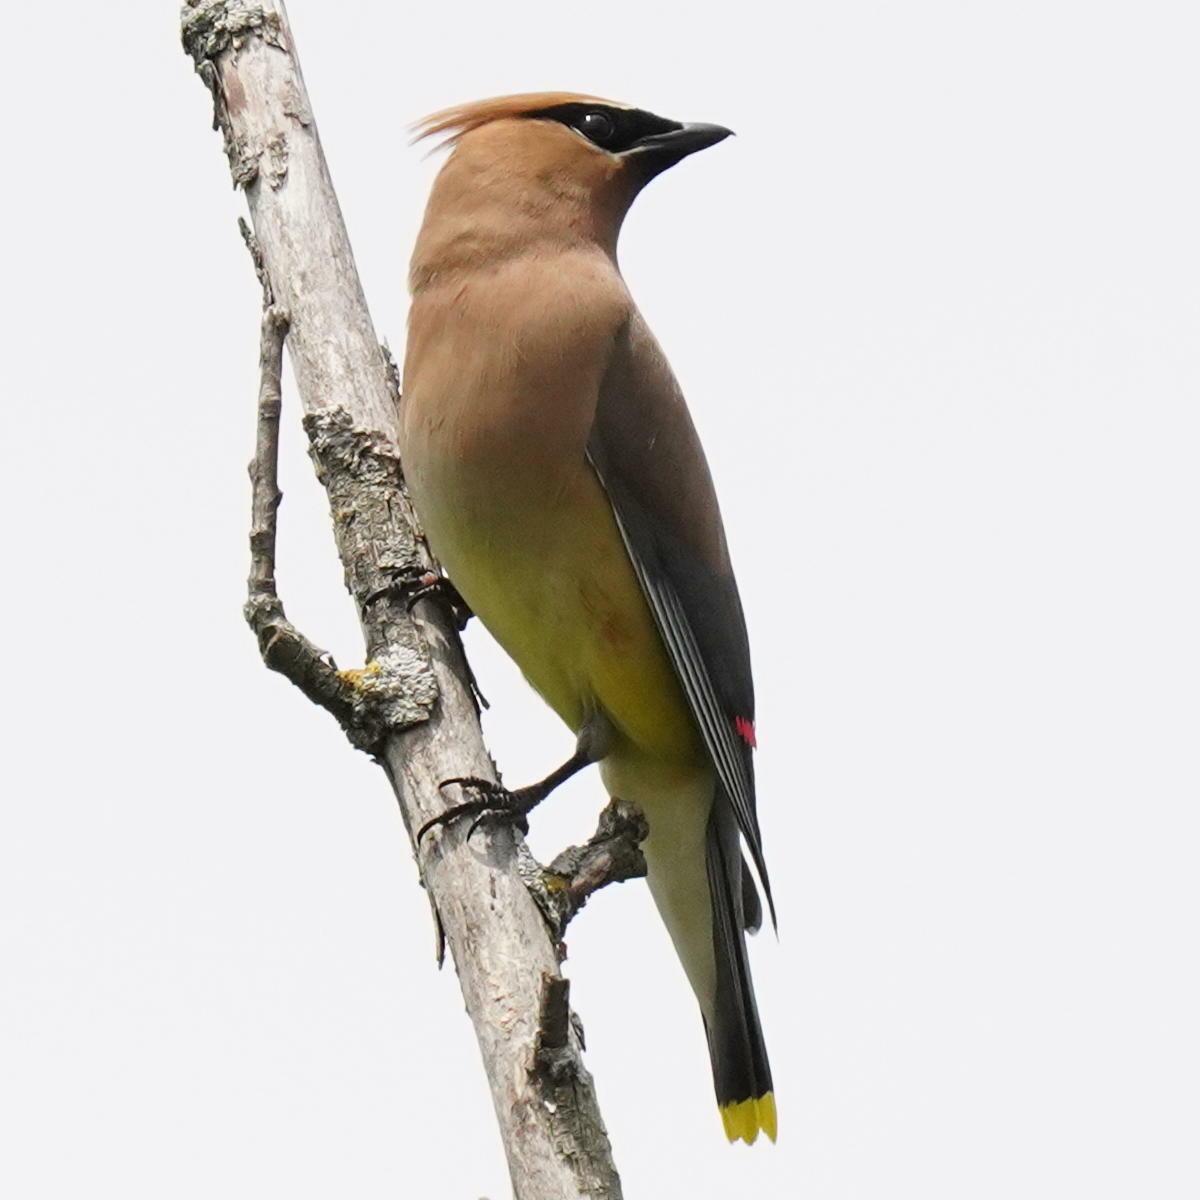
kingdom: Animalia
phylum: Chordata
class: Aves
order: Passeriformes
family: Bombycillidae
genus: Bombycilla
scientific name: Bombycilla cedrorum
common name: Cedar waxwing
